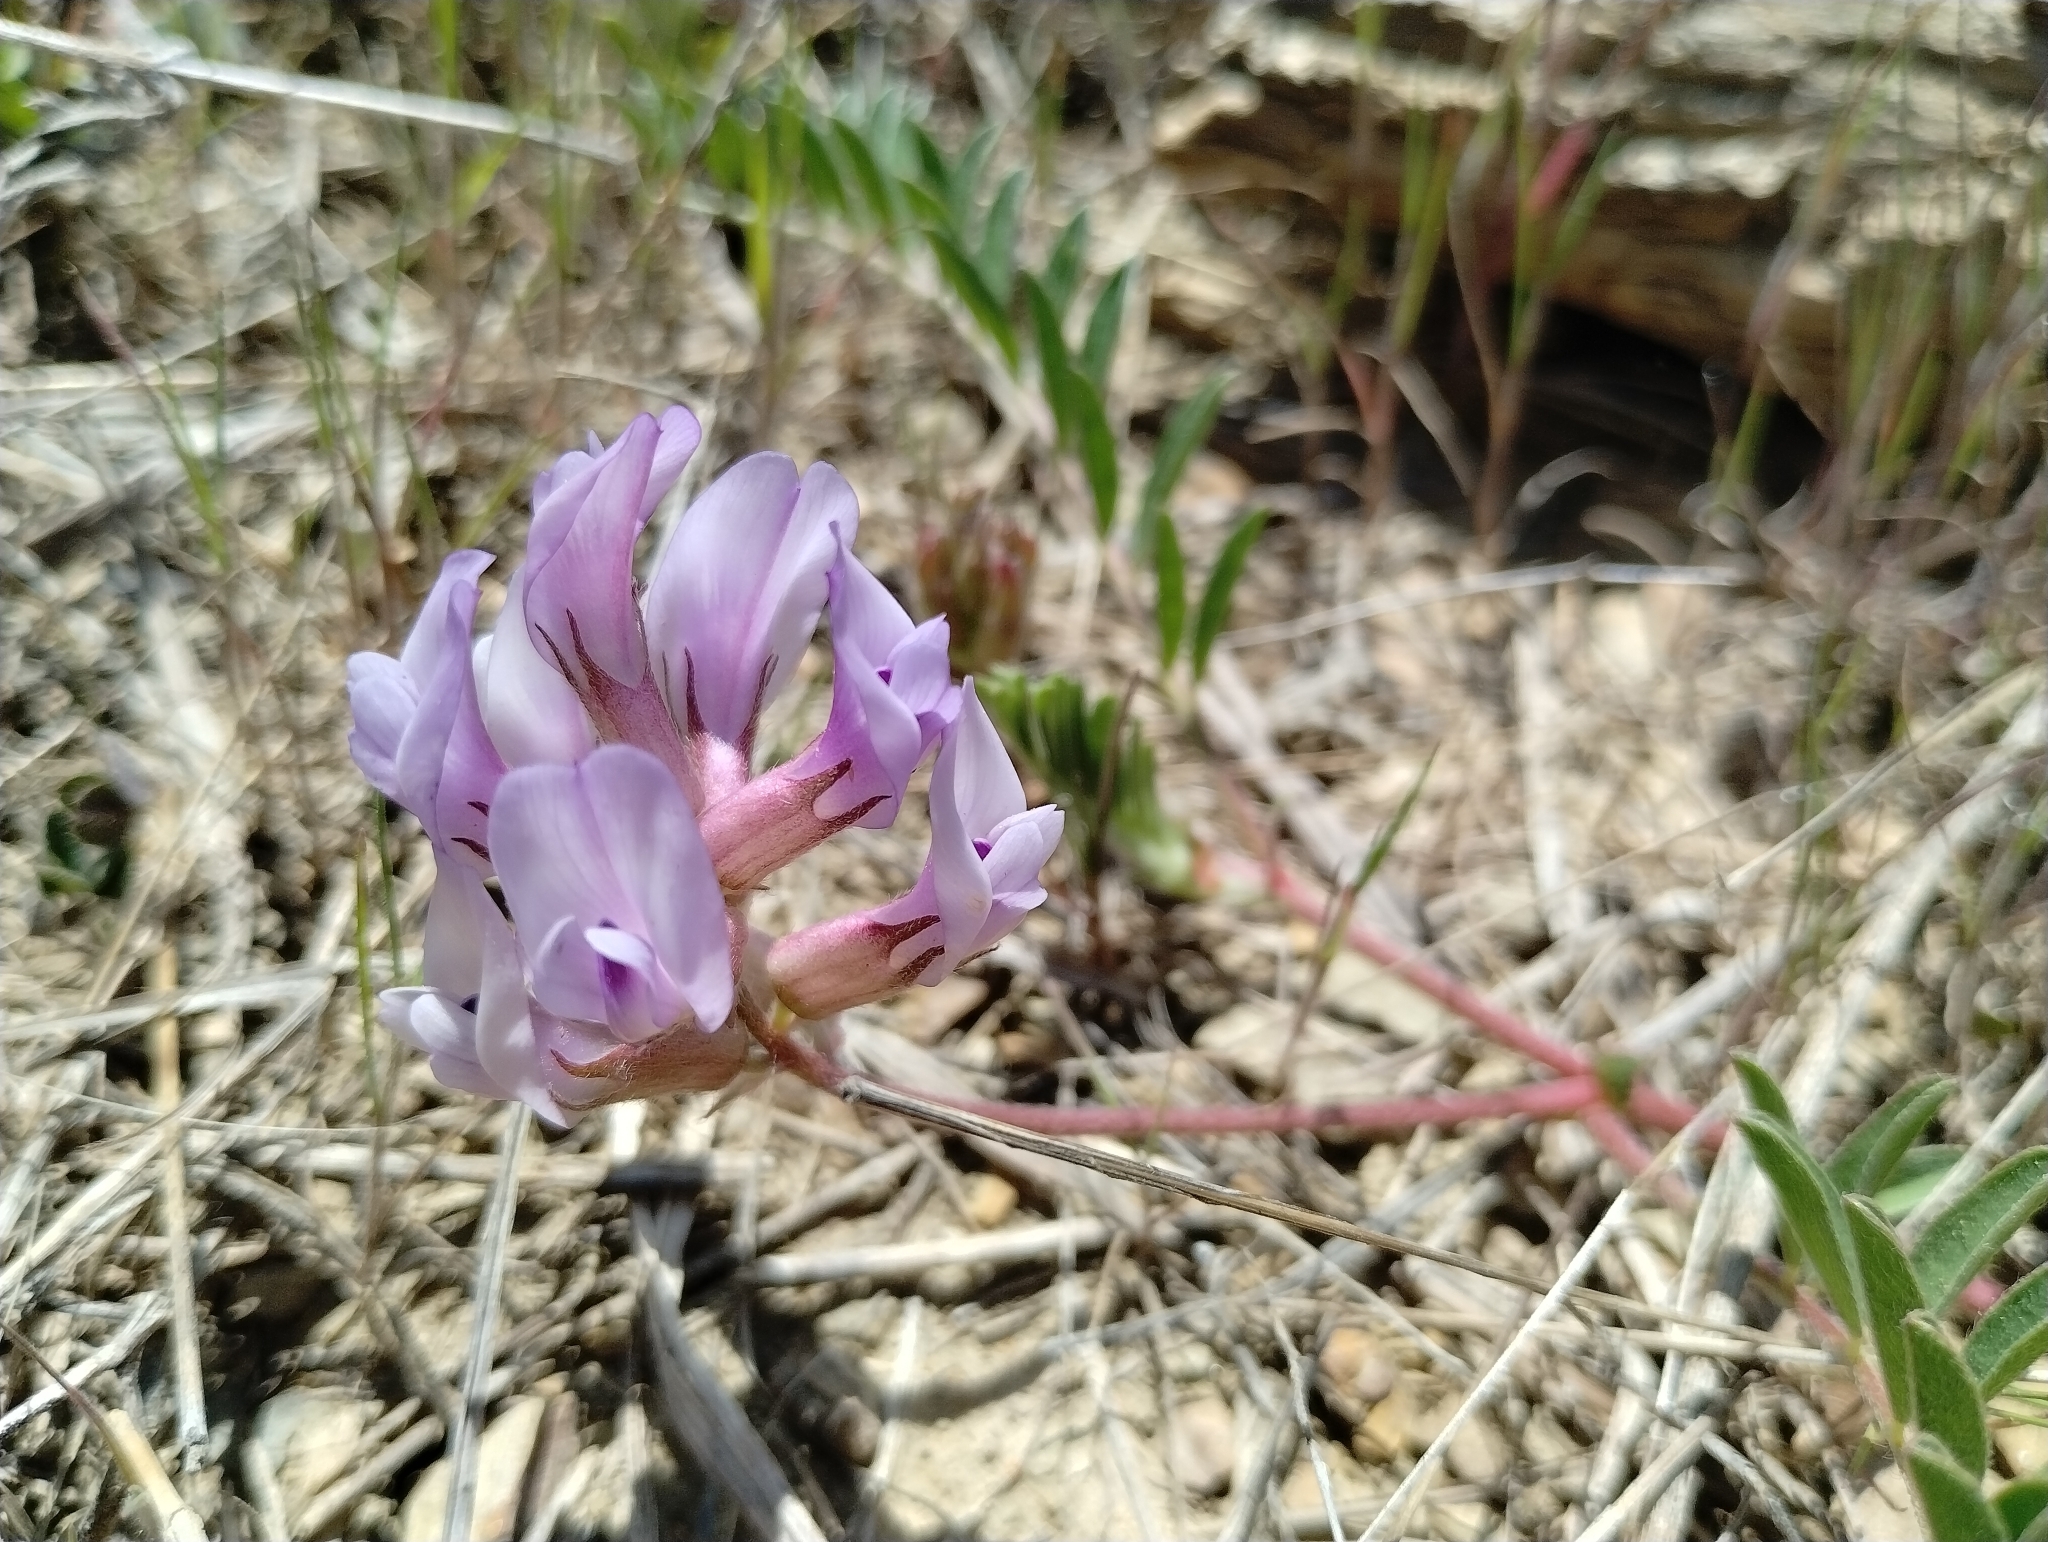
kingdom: Plantae
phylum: Tracheophyta
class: Magnoliopsida
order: Fabales
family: Fabaceae
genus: Astragalus
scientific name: Astragalus crassicarpus
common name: Ground-plum milk-vetch
